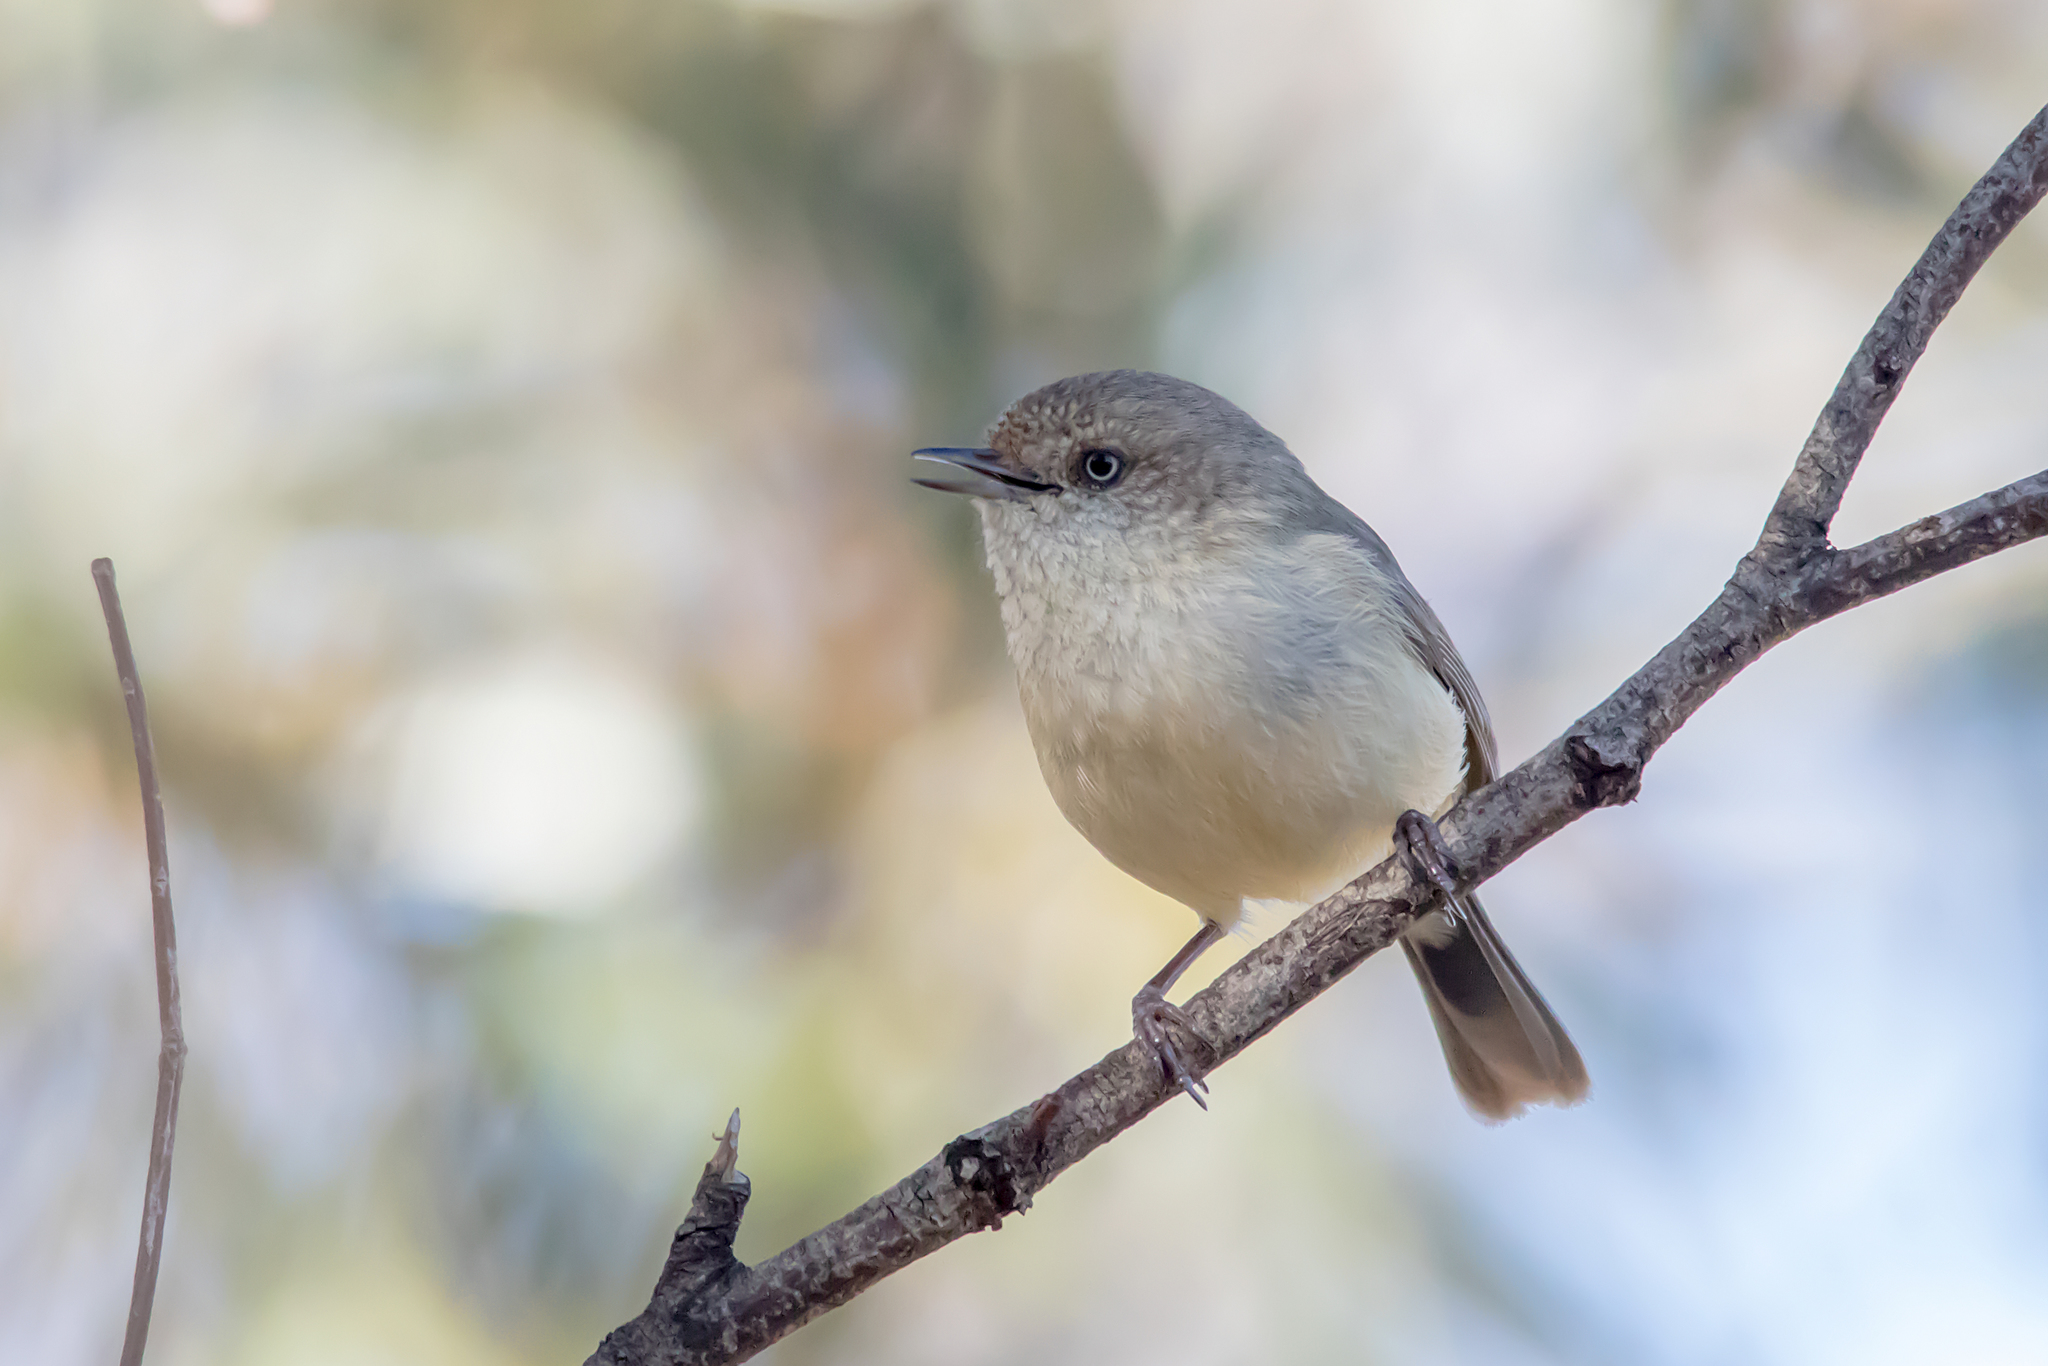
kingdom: Animalia
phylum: Chordata
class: Aves
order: Passeriformes
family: Acanthizidae
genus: Acanthiza
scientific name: Acanthiza reguloides
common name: Buff-rumped thornbill
